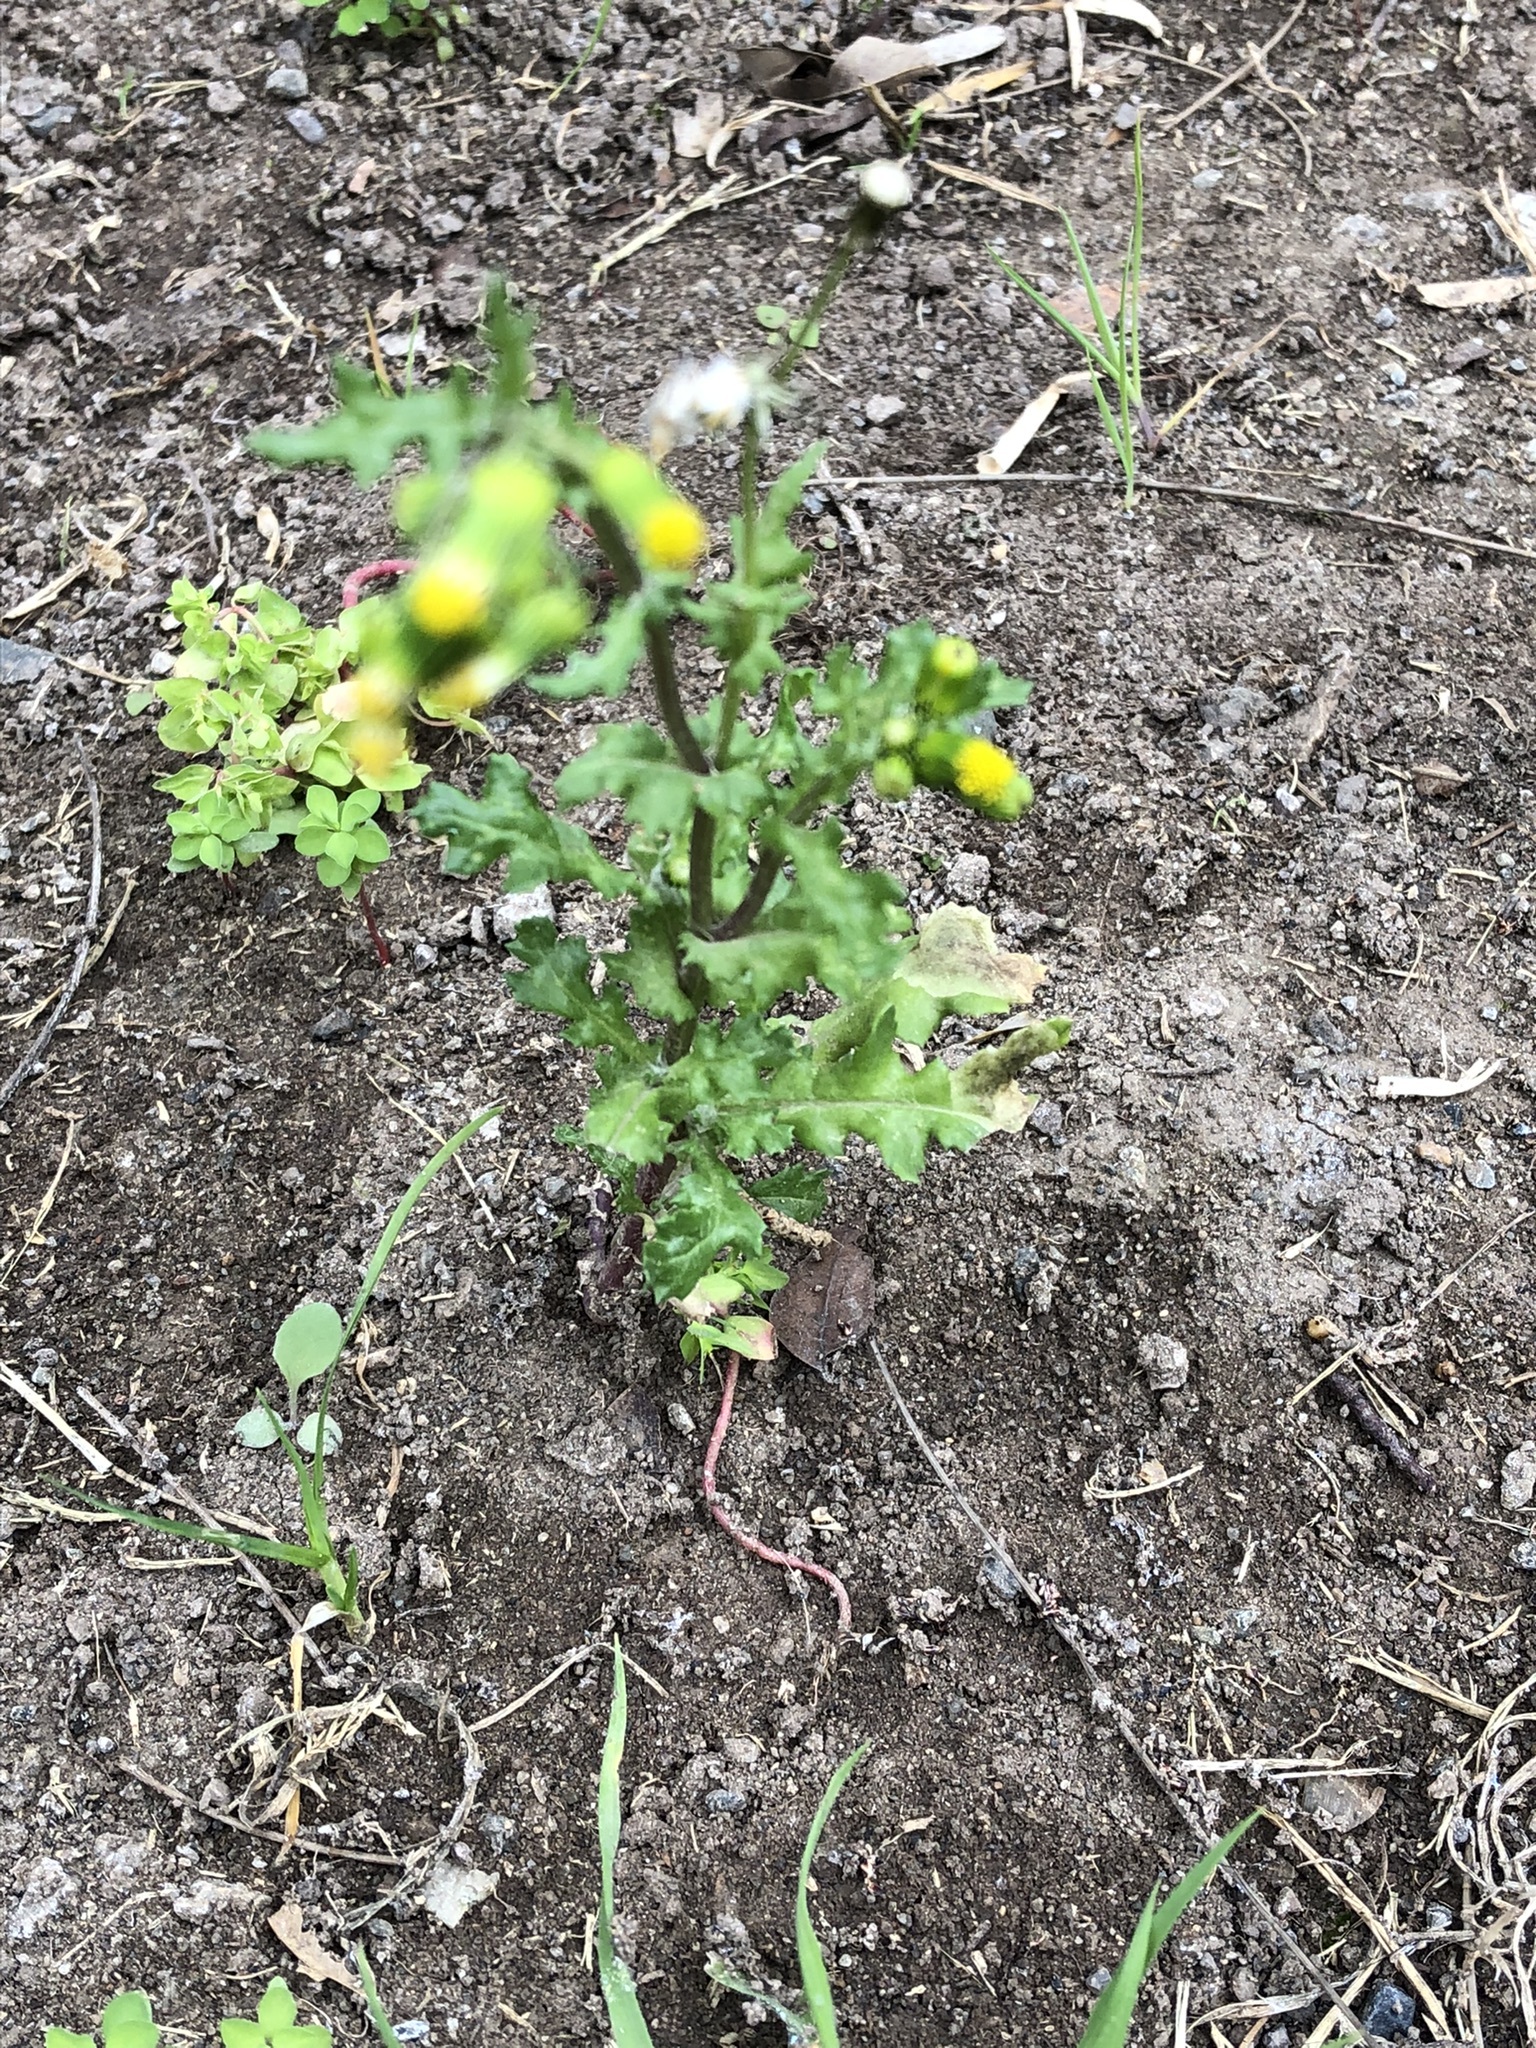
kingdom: Plantae
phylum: Tracheophyta
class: Magnoliopsida
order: Asterales
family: Asteraceae
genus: Senecio
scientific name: Senecio vulgaris
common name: Old-man-in-the-spring
